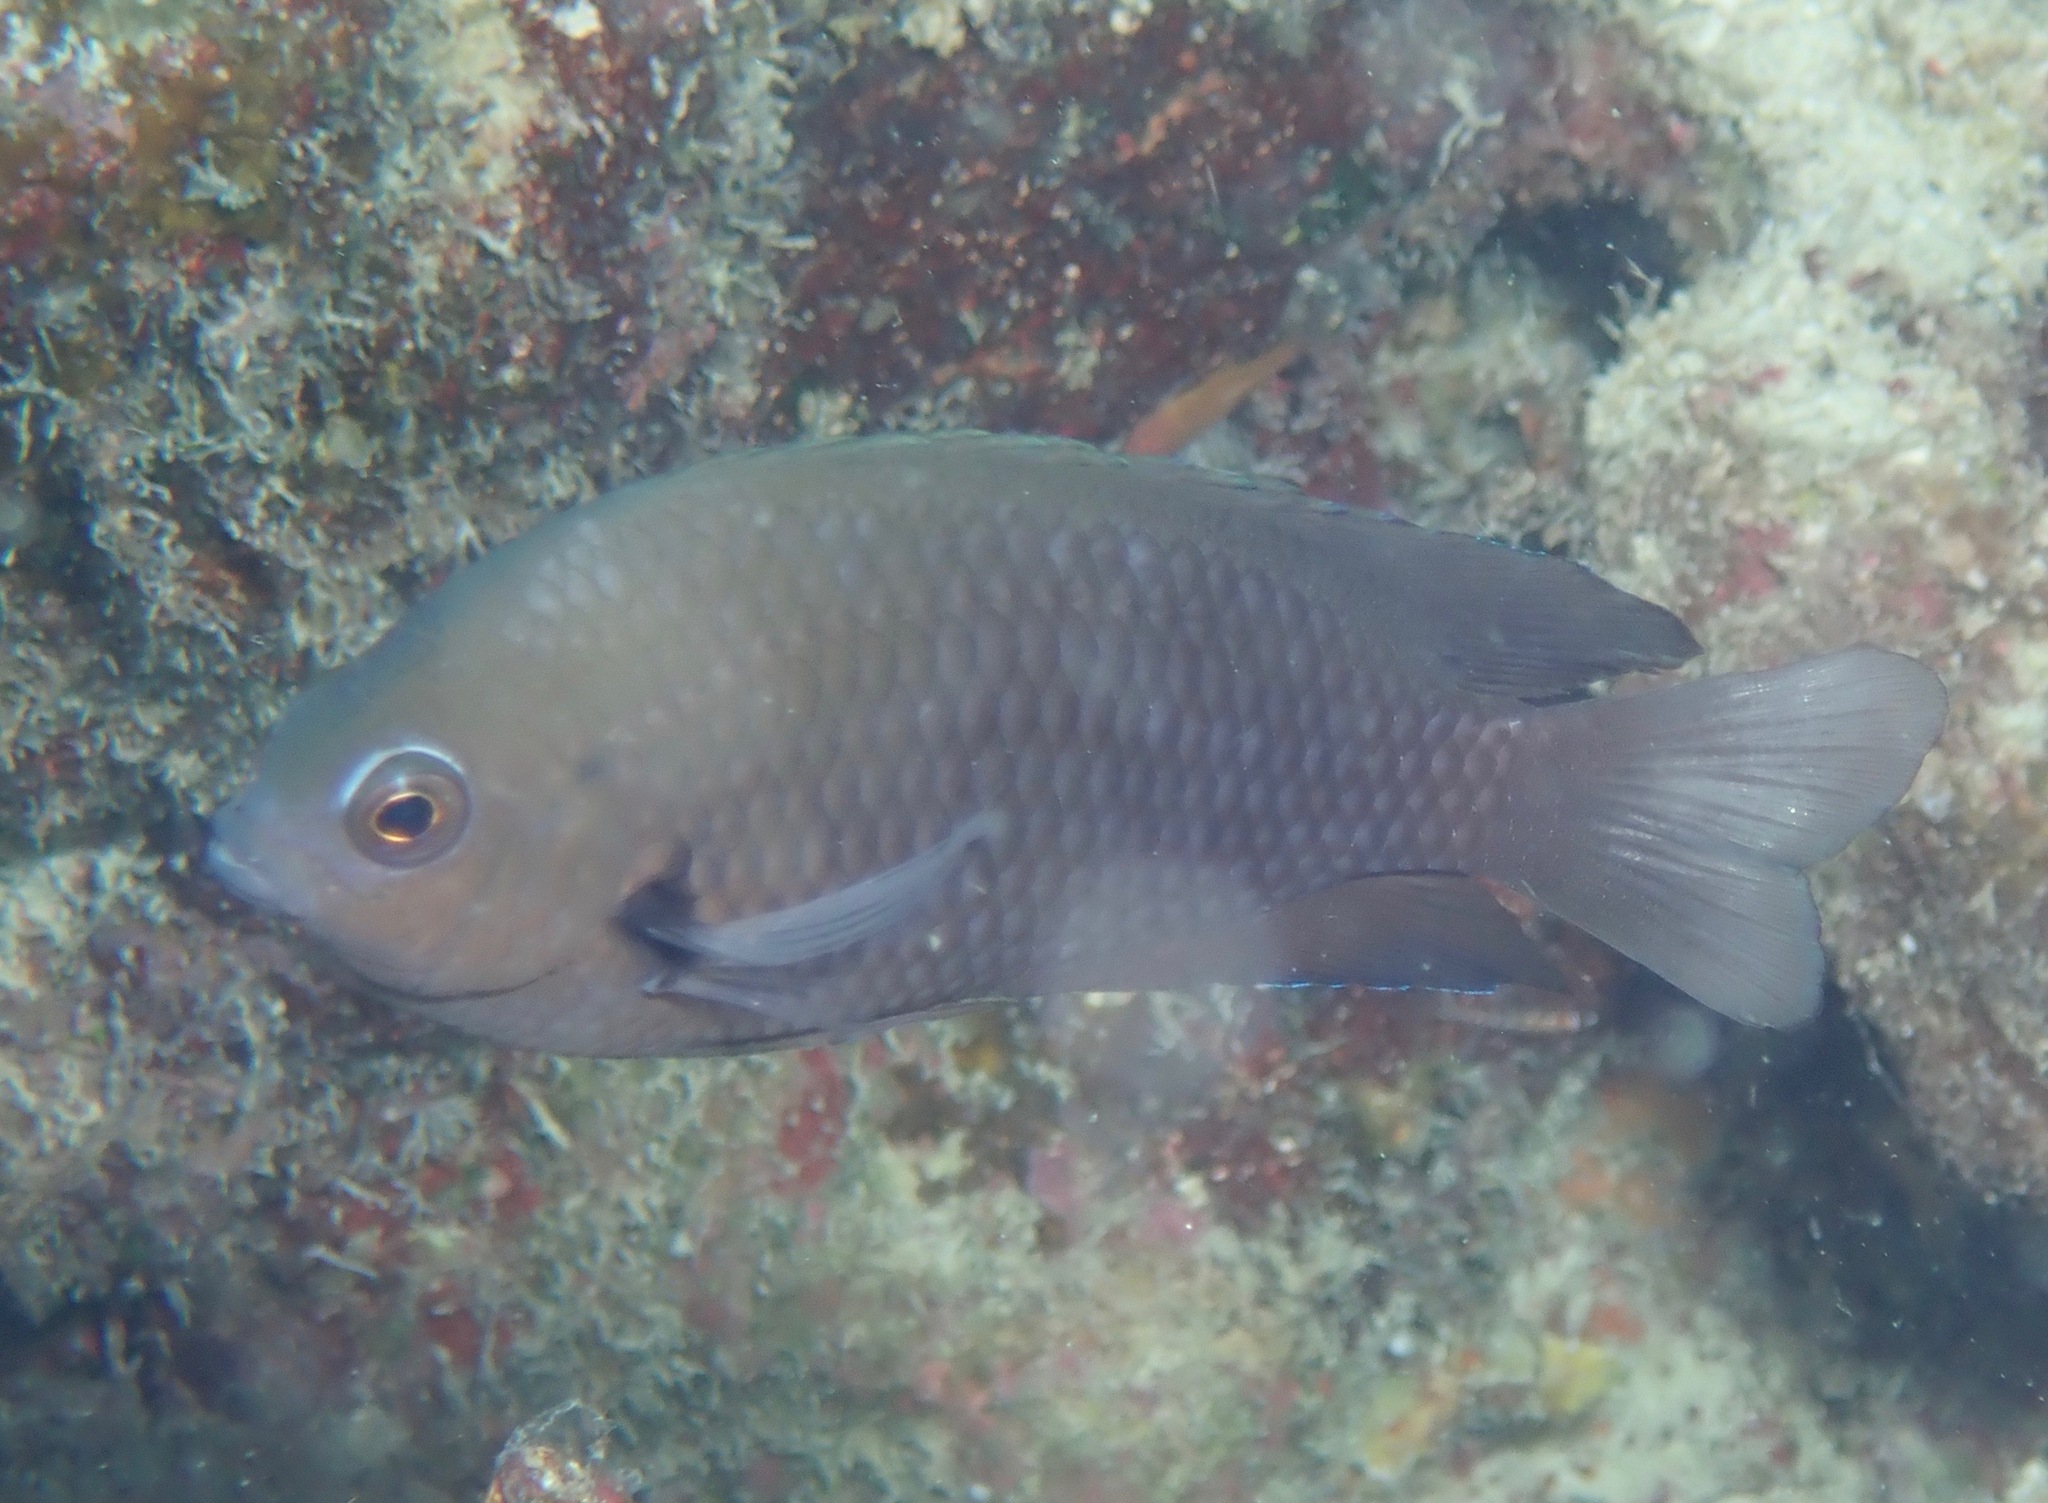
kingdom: Animalia
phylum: Chordata
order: Perciformes
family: Pomacentridae
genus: Pomacentrus
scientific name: Pomacentrus microspilus
